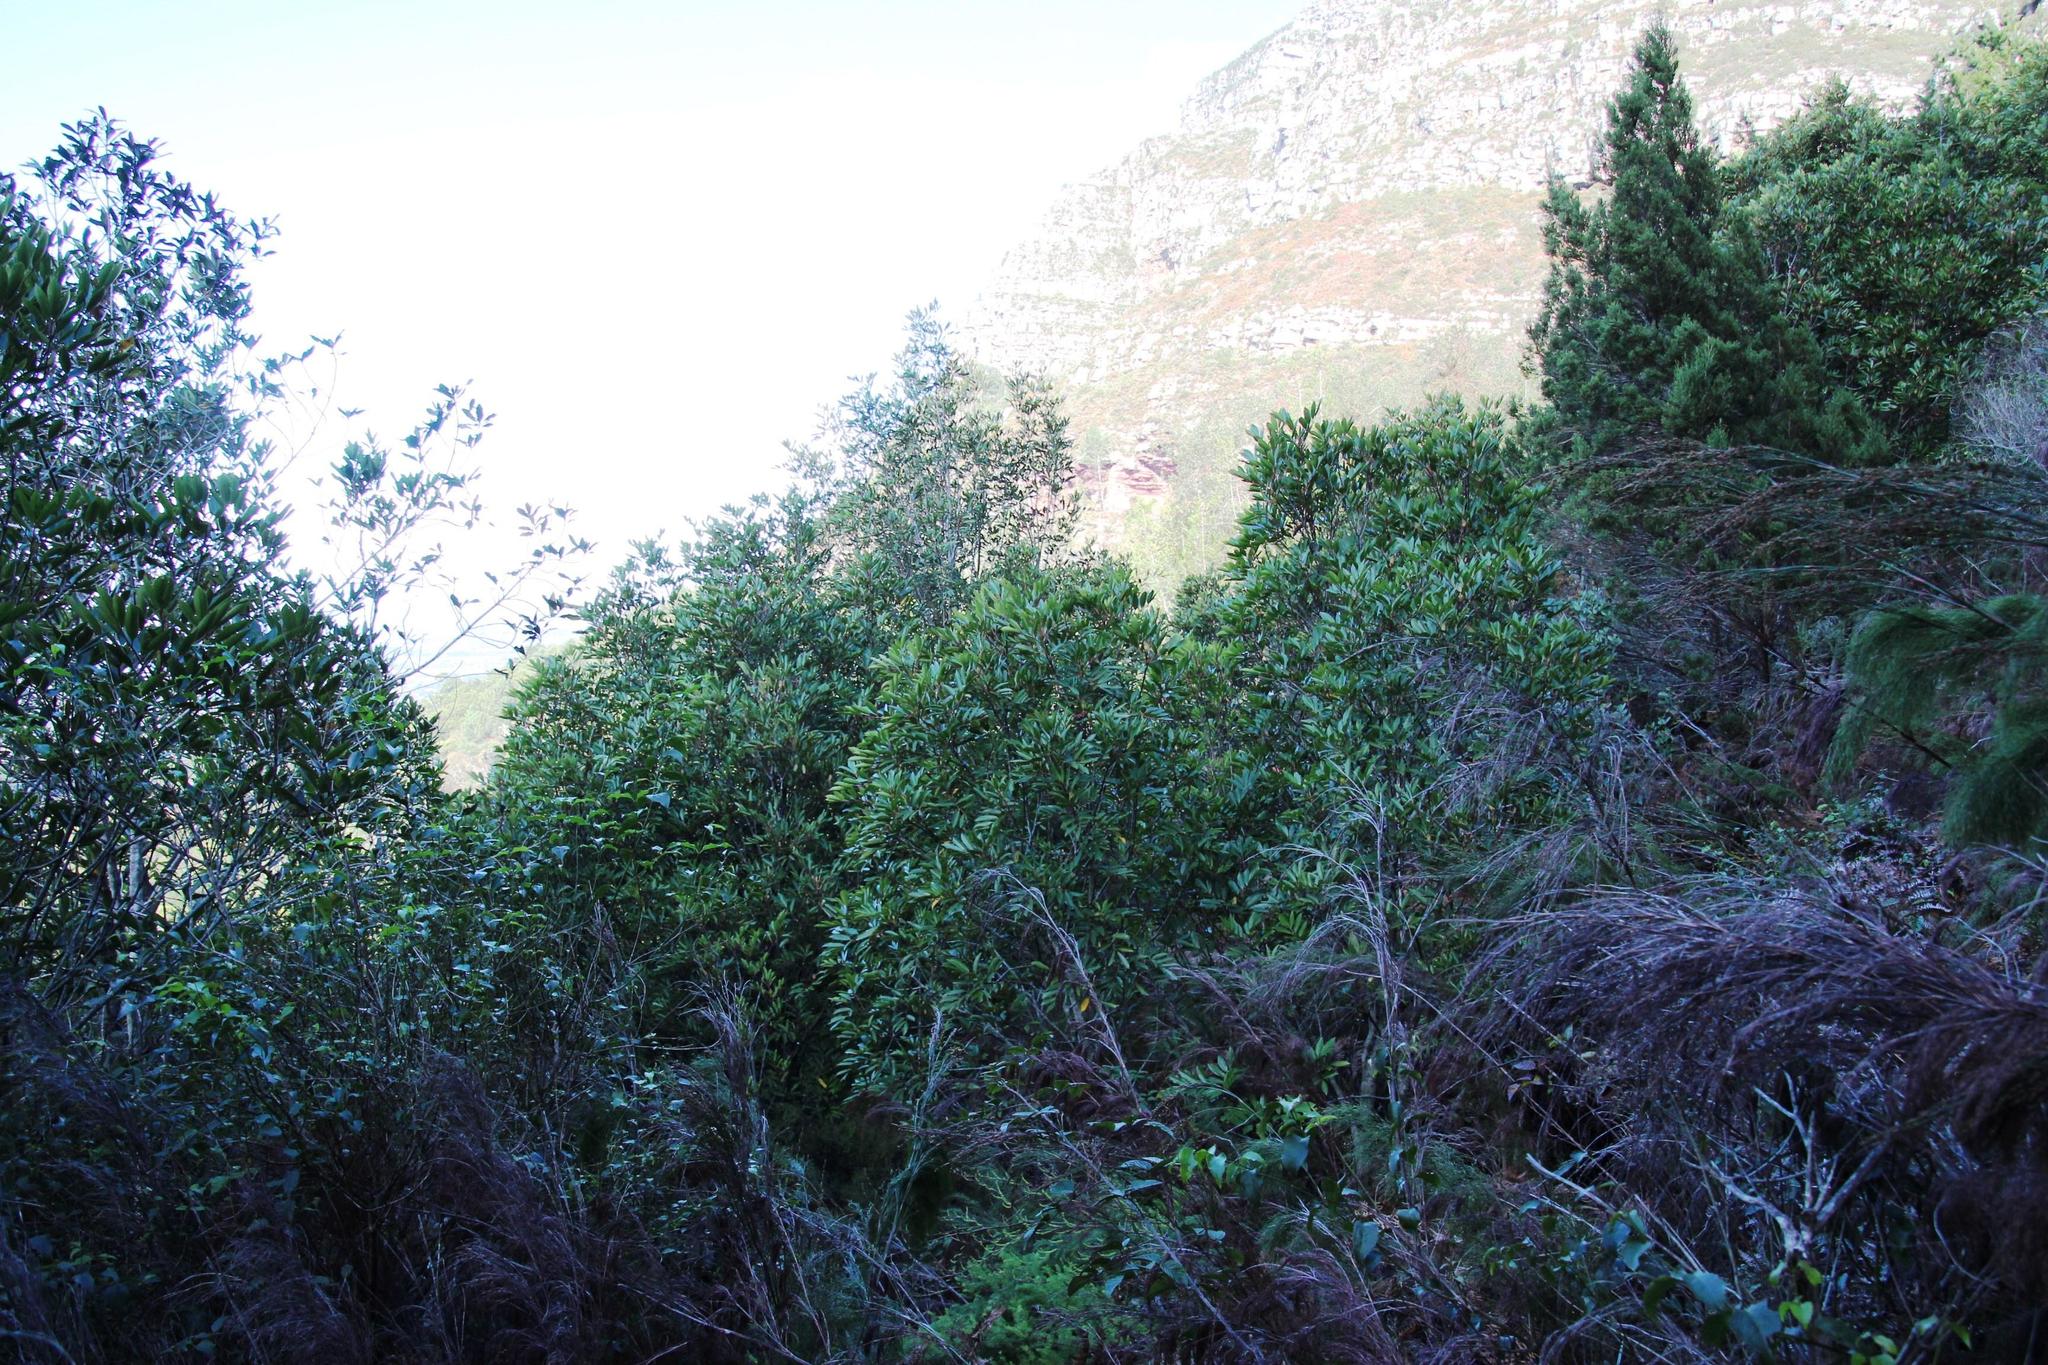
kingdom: Plantae
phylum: Tracheophyta
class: Magnoliopsida
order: Oxalidales
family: Cunoniaceae
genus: Cunonia
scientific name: Cunonia capensis
